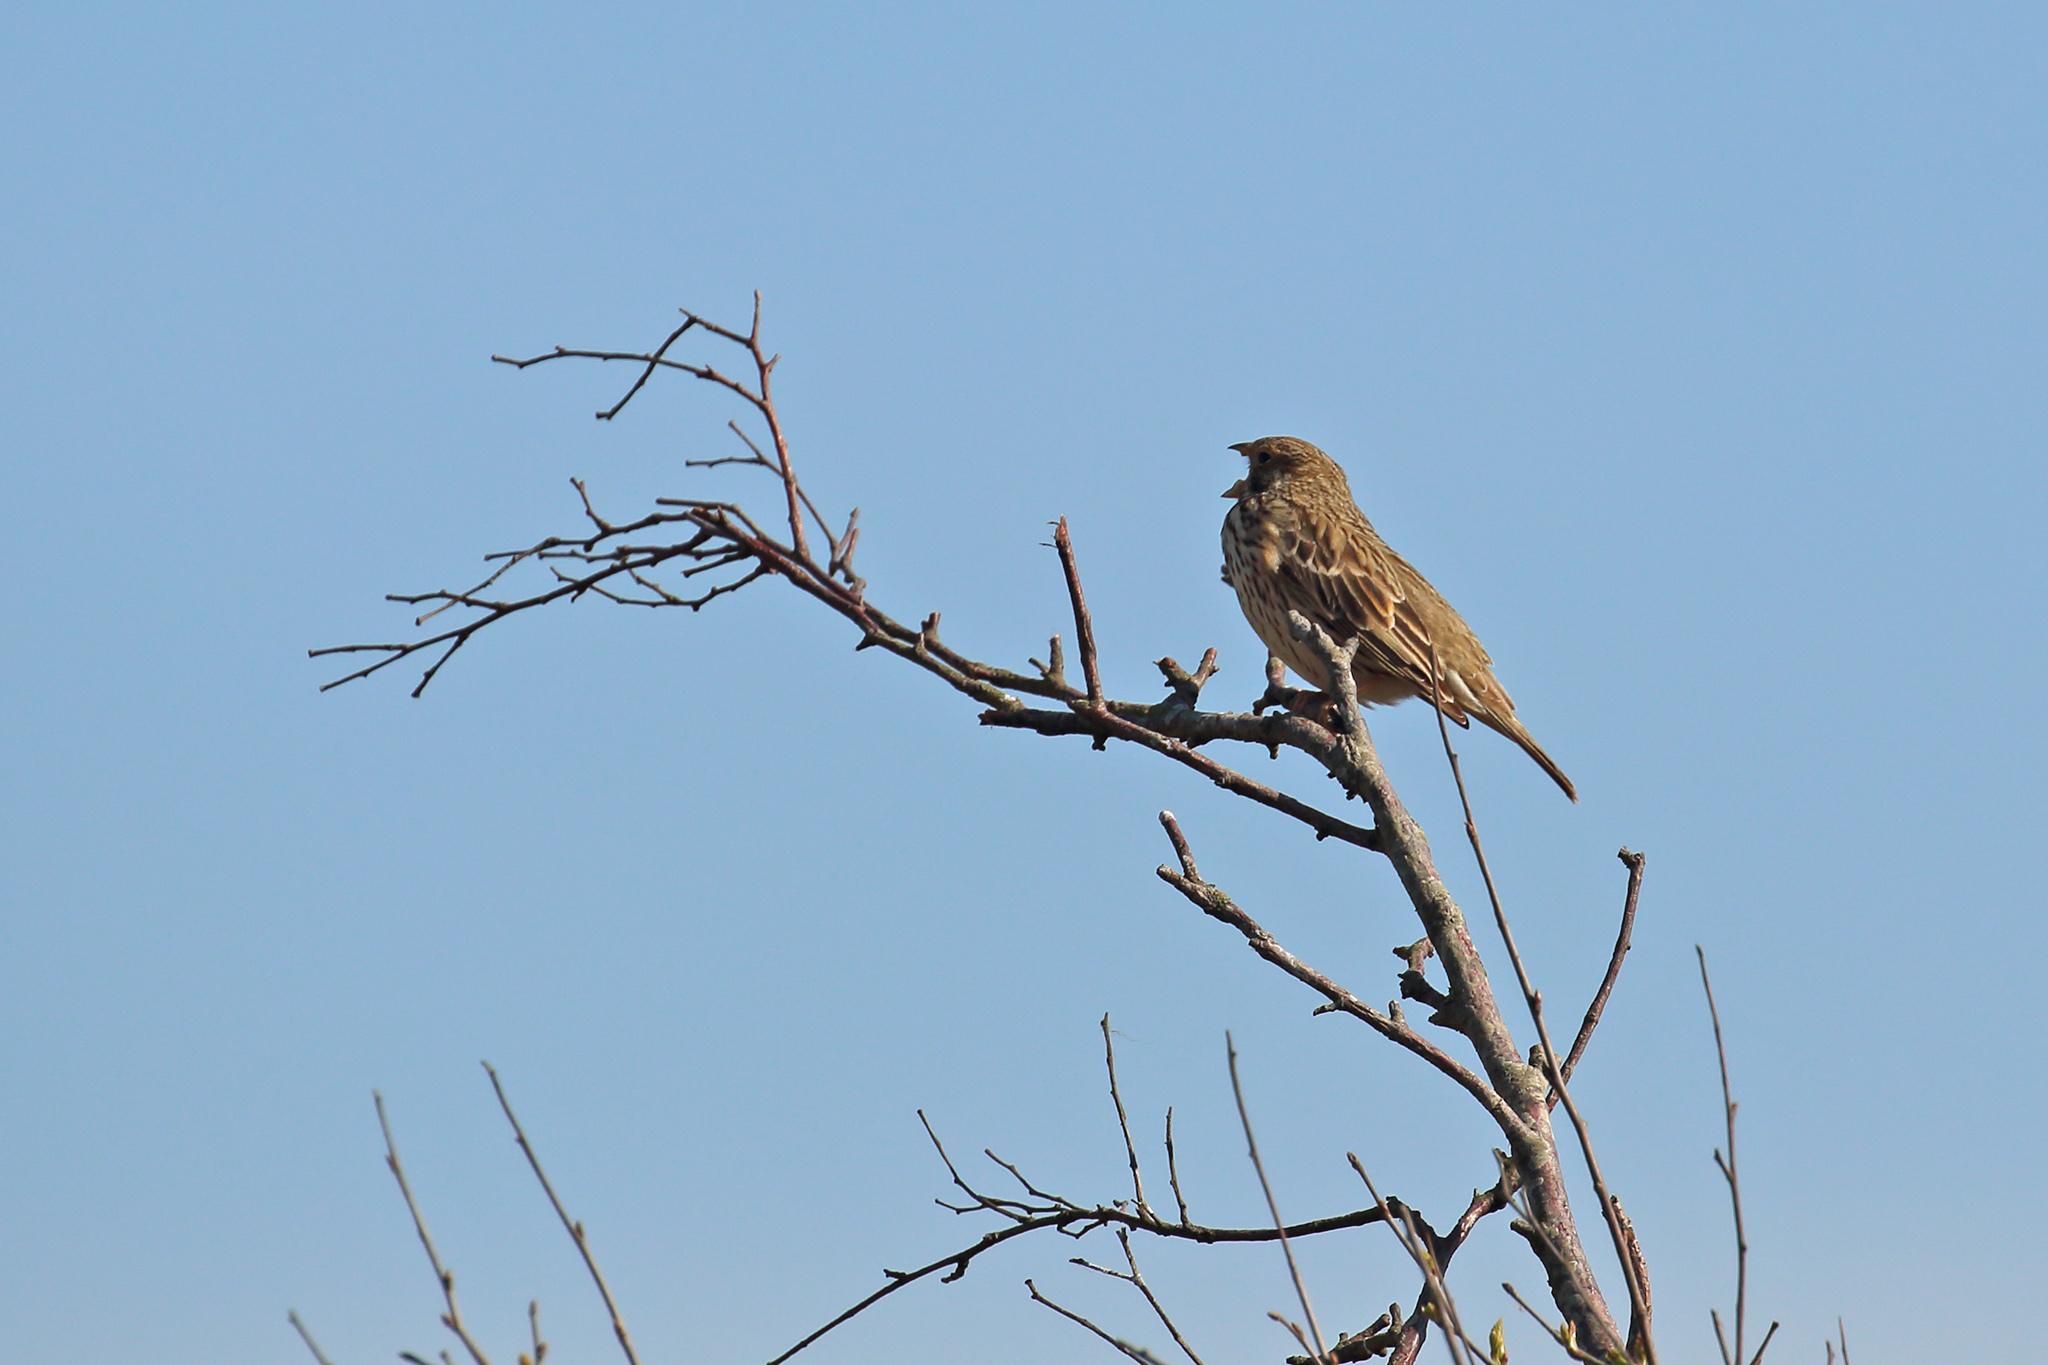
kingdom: Animalia
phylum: Chordata
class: Aves
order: Passeriformes
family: Emberizidae
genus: Emberiza
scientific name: Emberiza calandra
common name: Corn bunting
